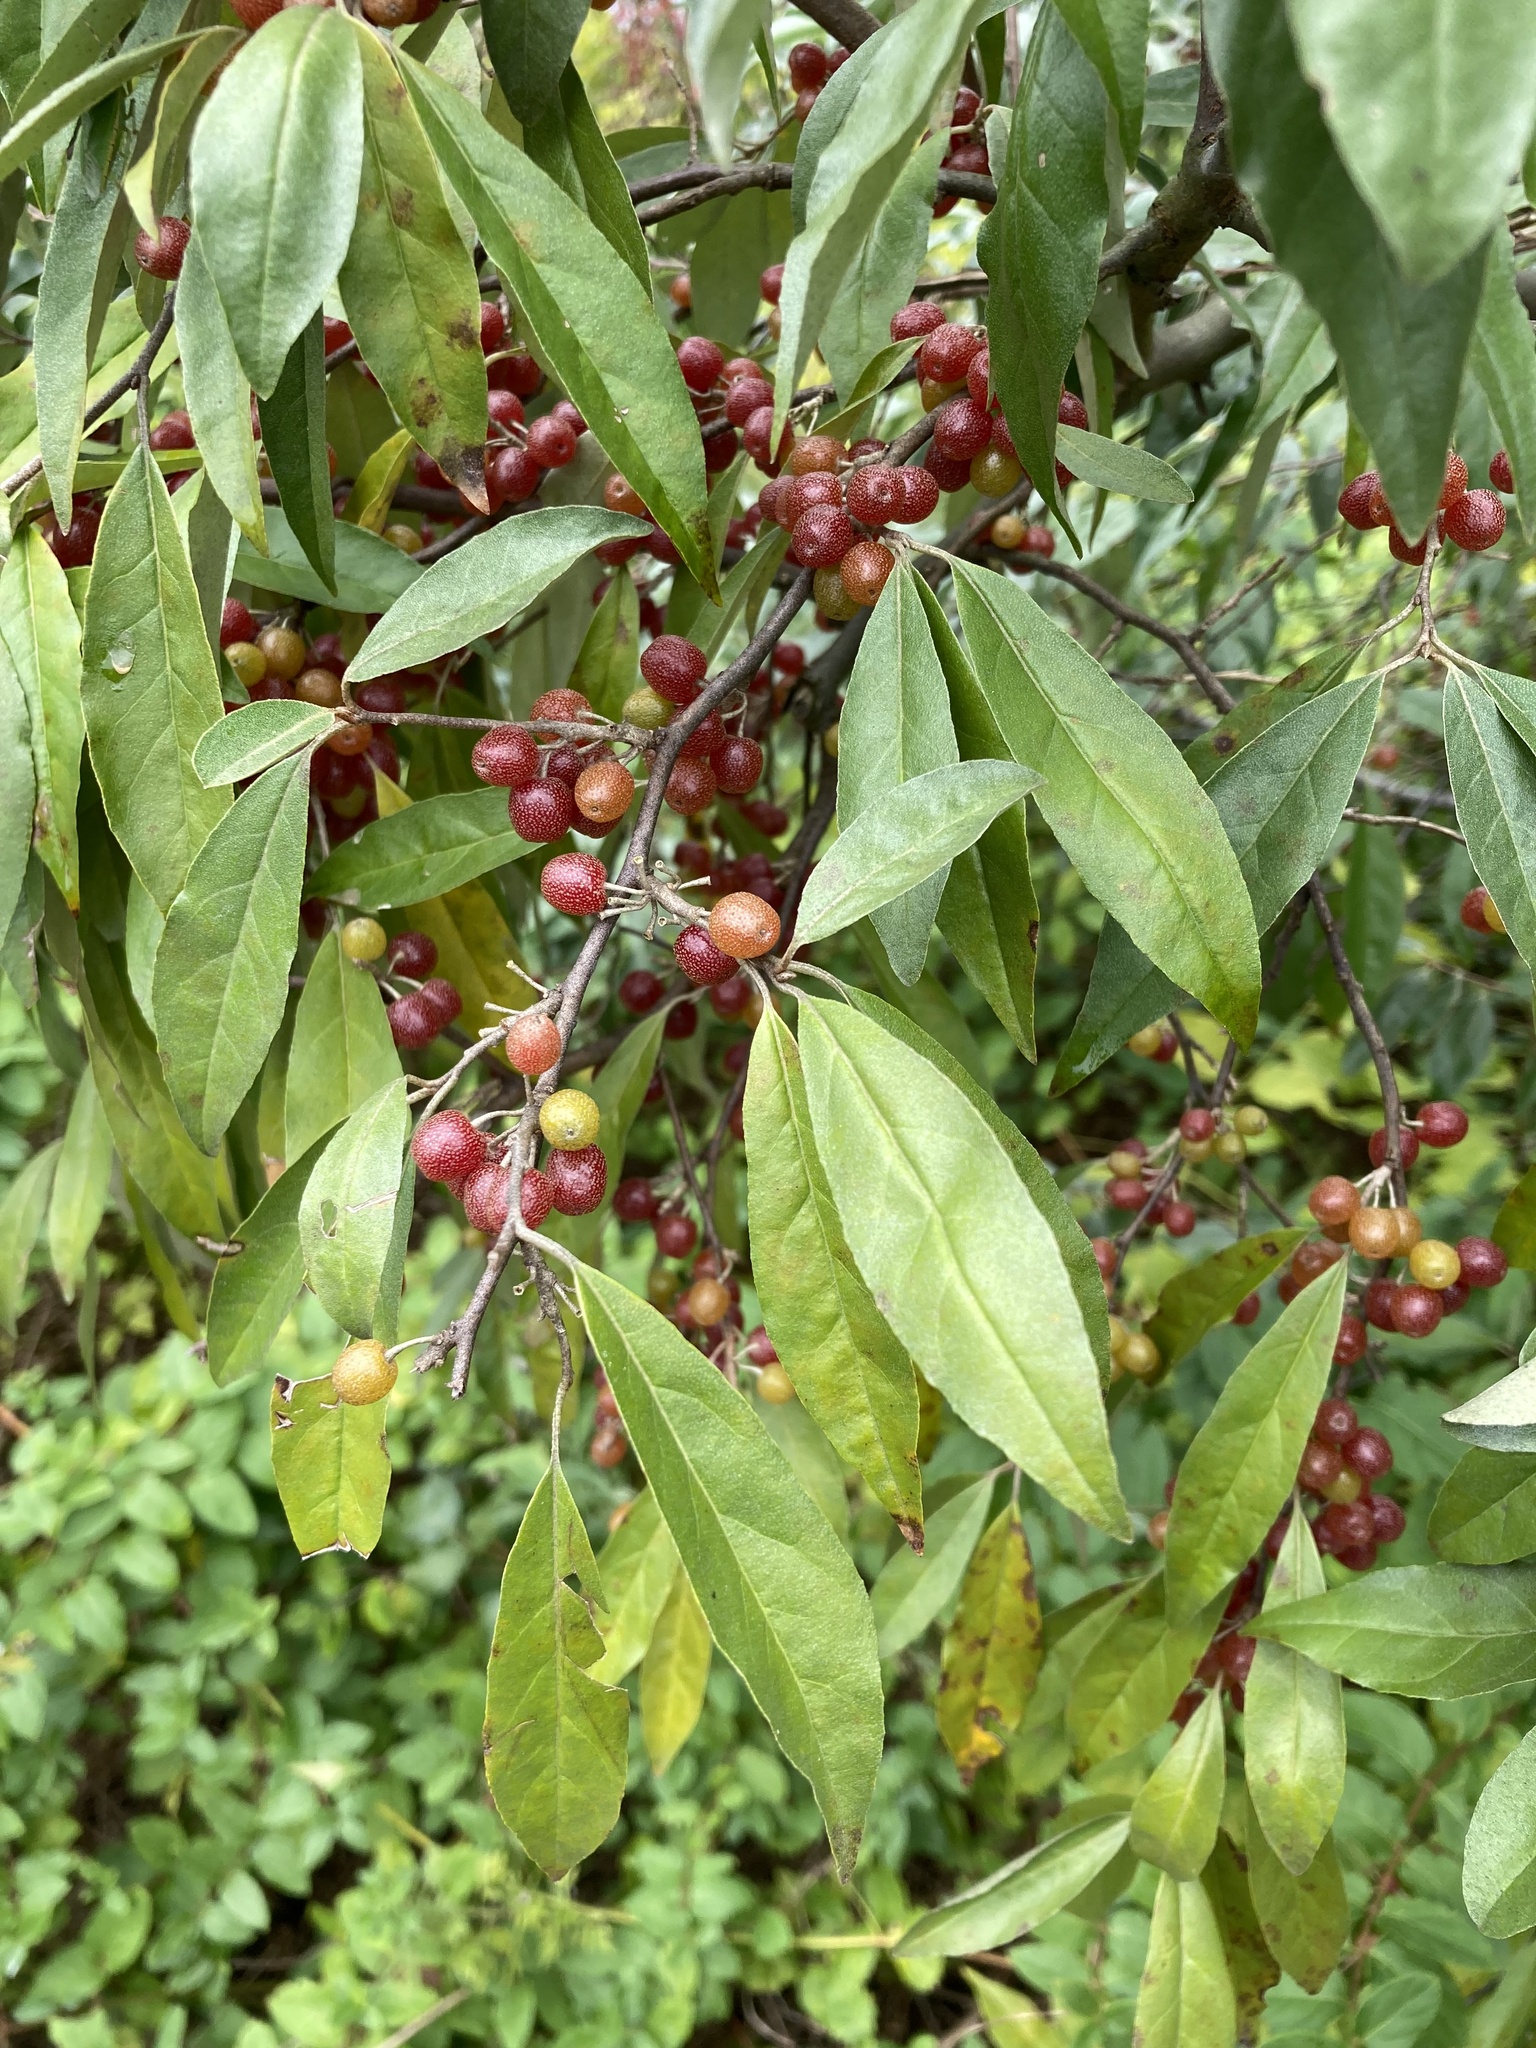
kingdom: Plantae
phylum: Tracheophyta
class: Magnoliopsida
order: Rosales
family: Elaeagnaceae
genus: Elaeagnus
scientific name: Elaeagnus umbellata
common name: Autumn olive
